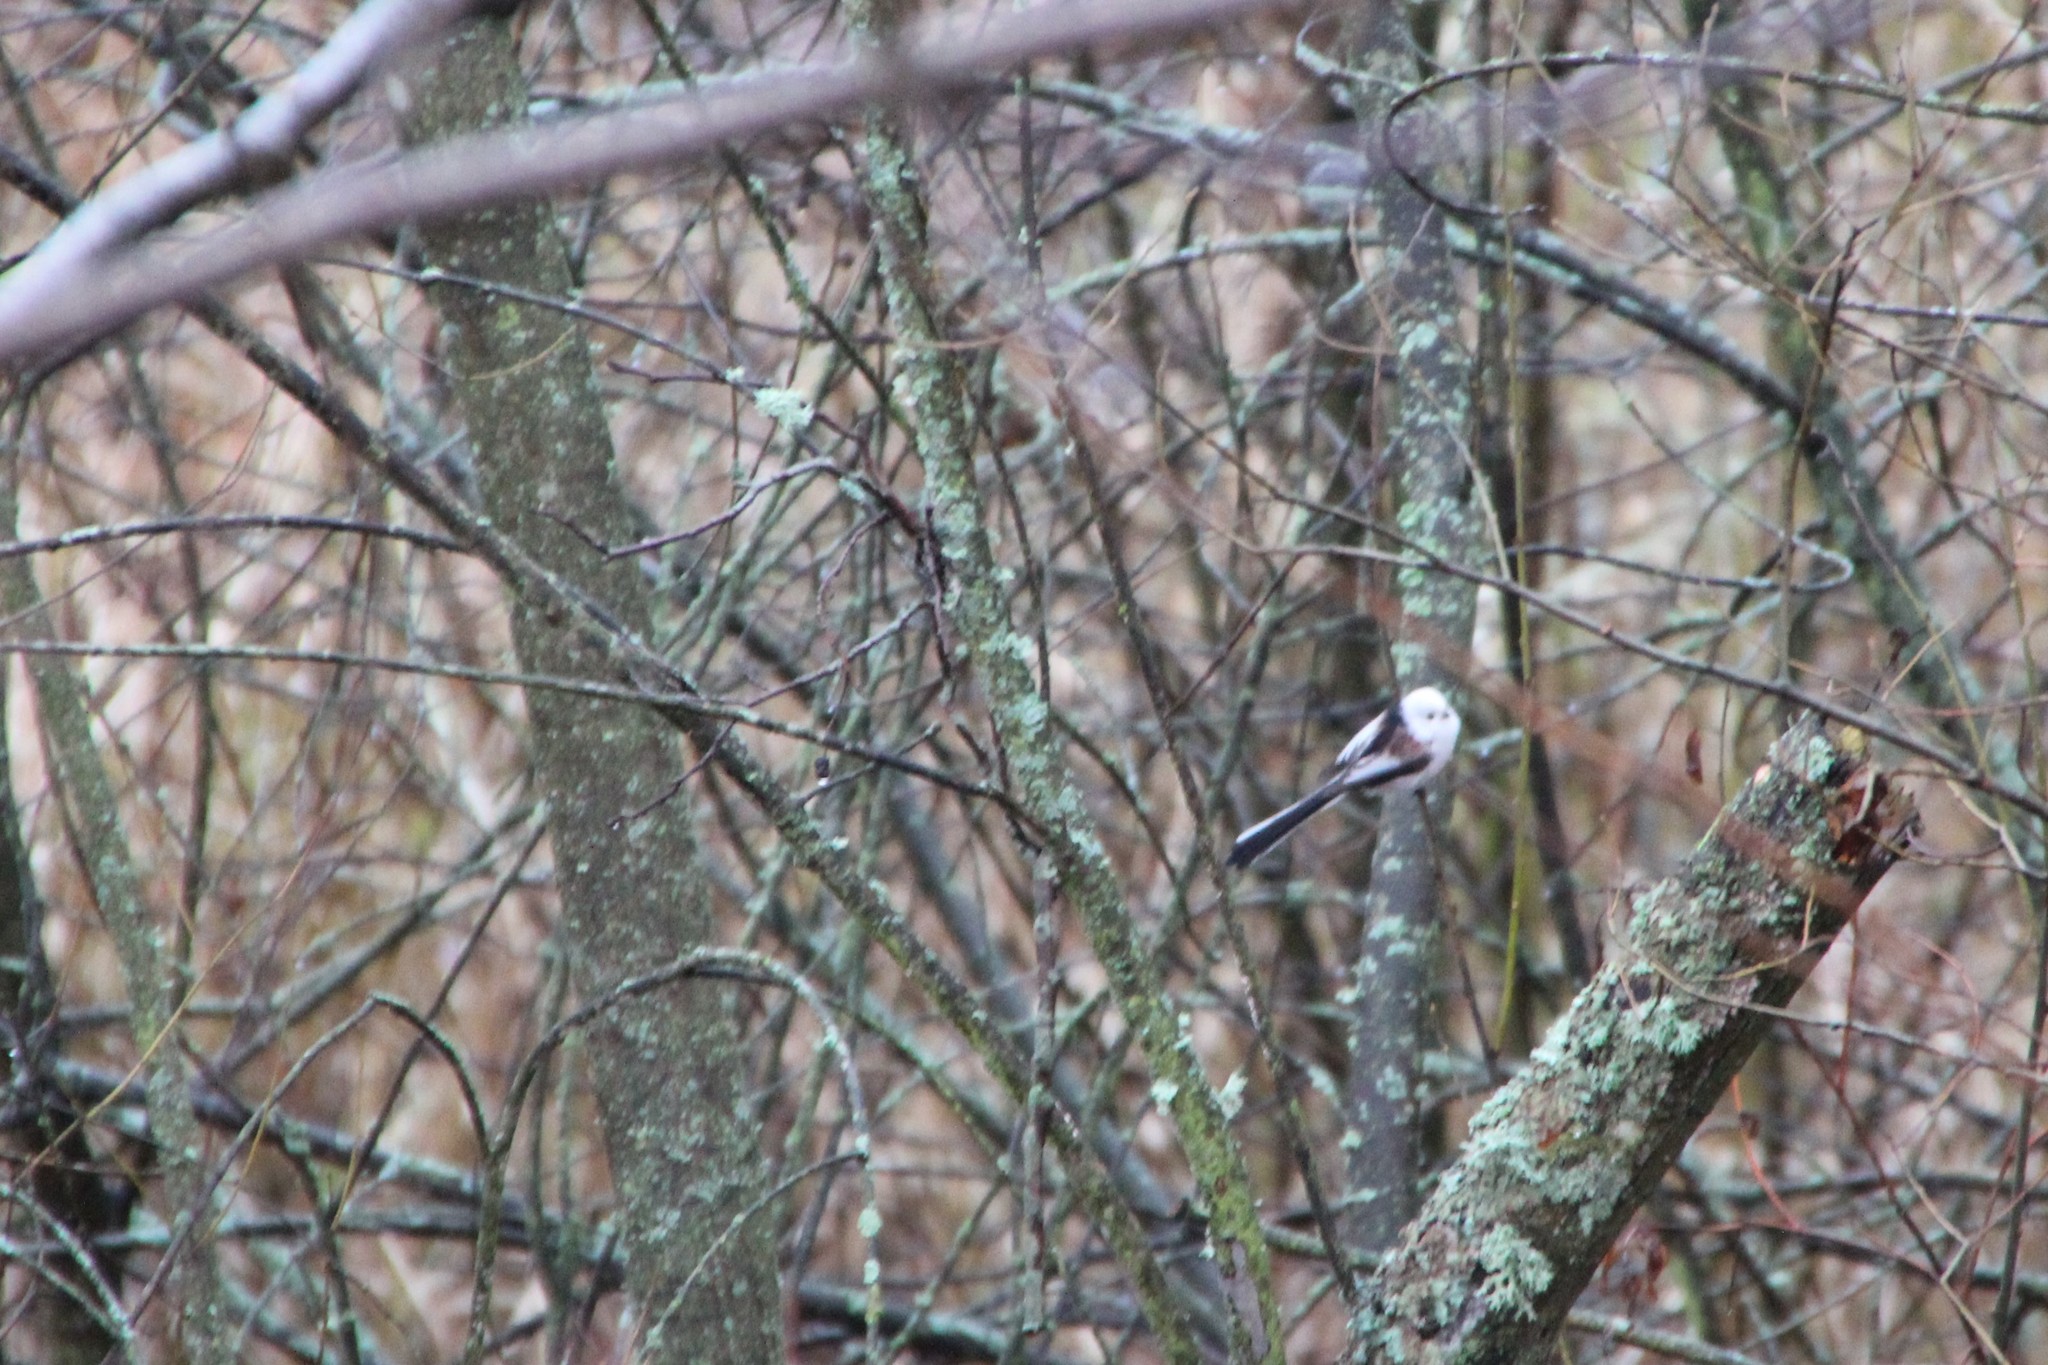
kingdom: Animalia
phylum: Chordata
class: Aves
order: Passeriformes
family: Aegithalidae
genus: Aegithalos
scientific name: Aegithalos caudatus
